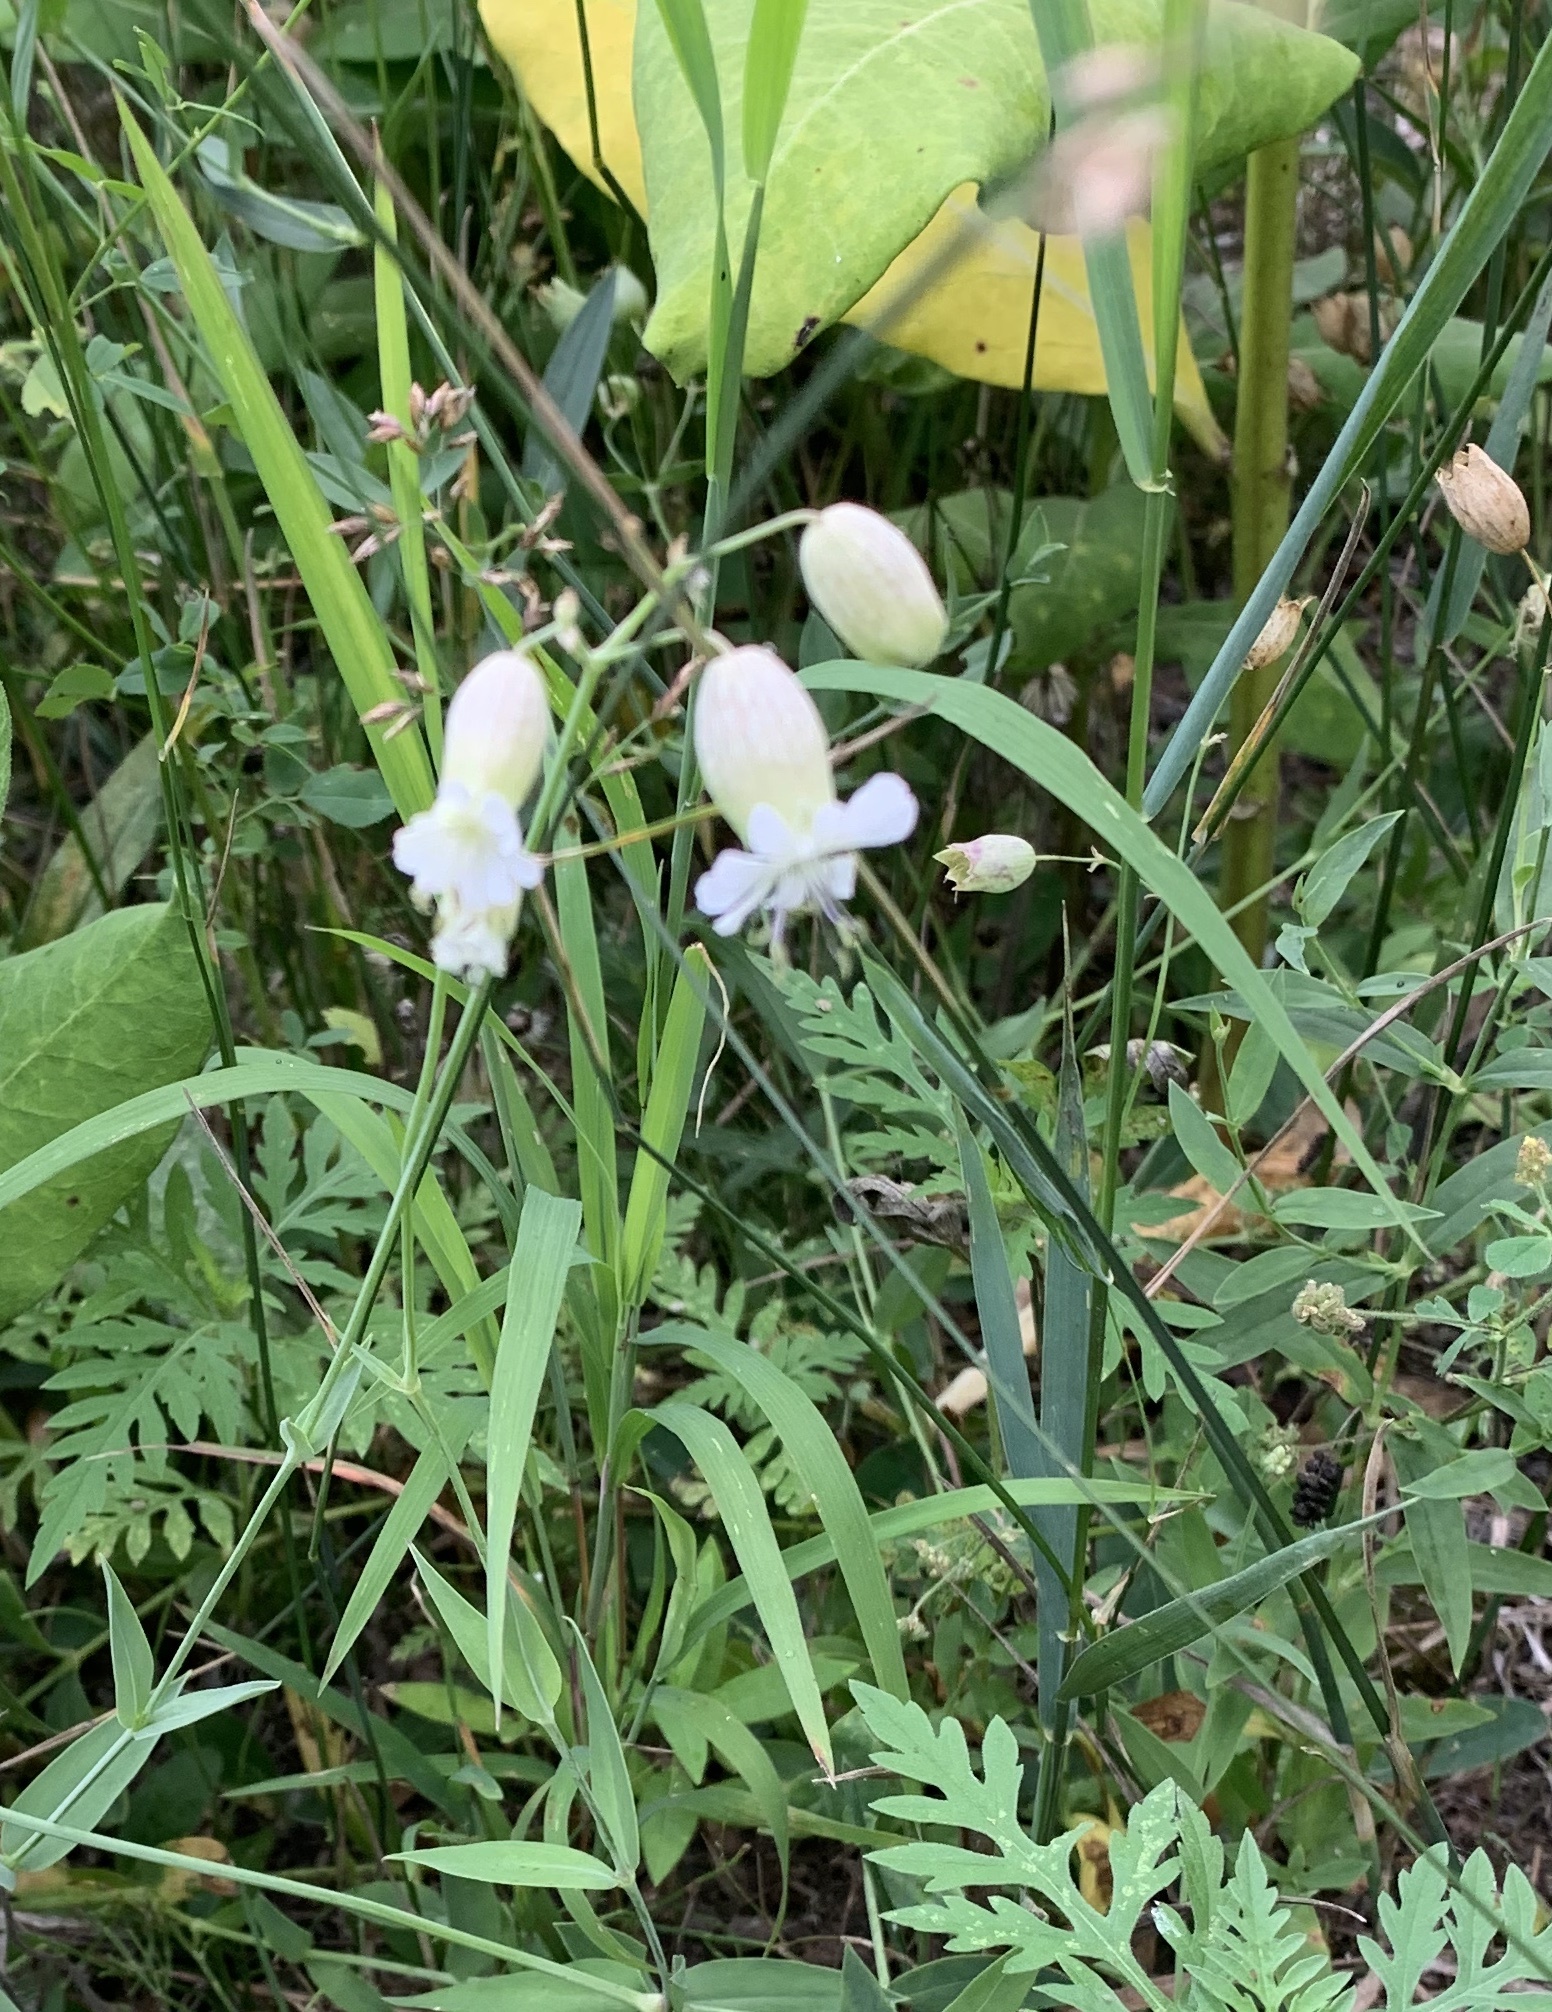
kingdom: Plantae
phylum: Tracheophyta
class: Magnoliopsida
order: Caryophyllales
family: Caryophyllaceae
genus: Silene
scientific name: Silene vulgaris
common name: Bladder campion
